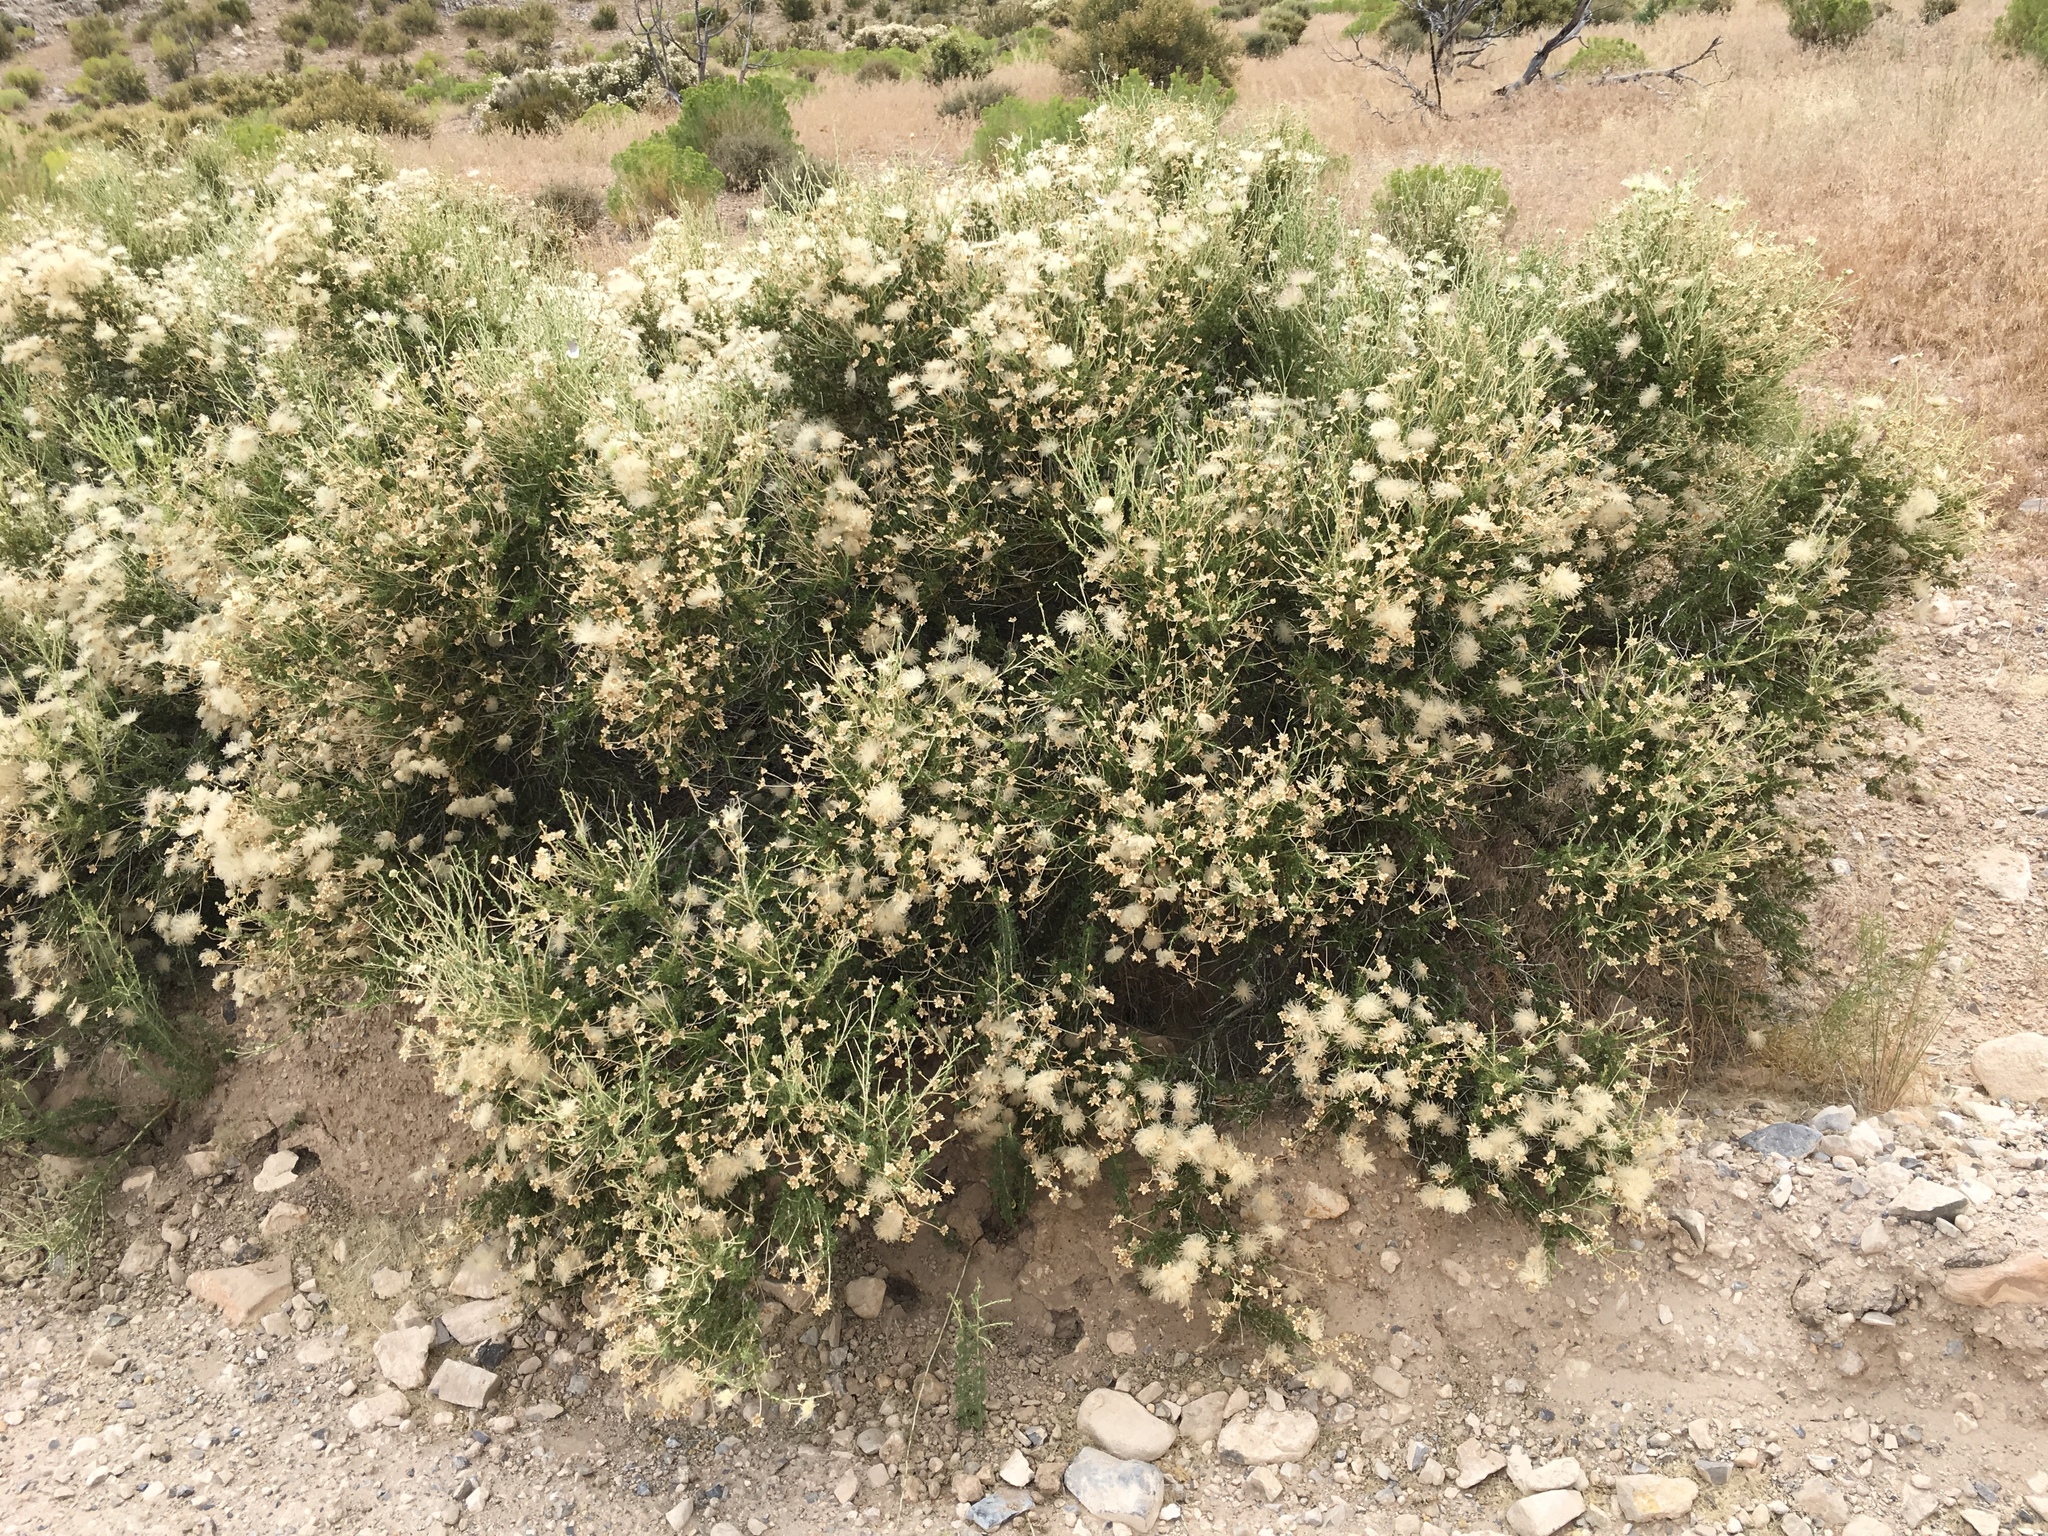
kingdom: Plantae
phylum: Tracheophyta
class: Magnoliopsida
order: Rosales
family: Rosaceae
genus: Fallugia
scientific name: Fallugia paradoxa
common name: Apache-plume
